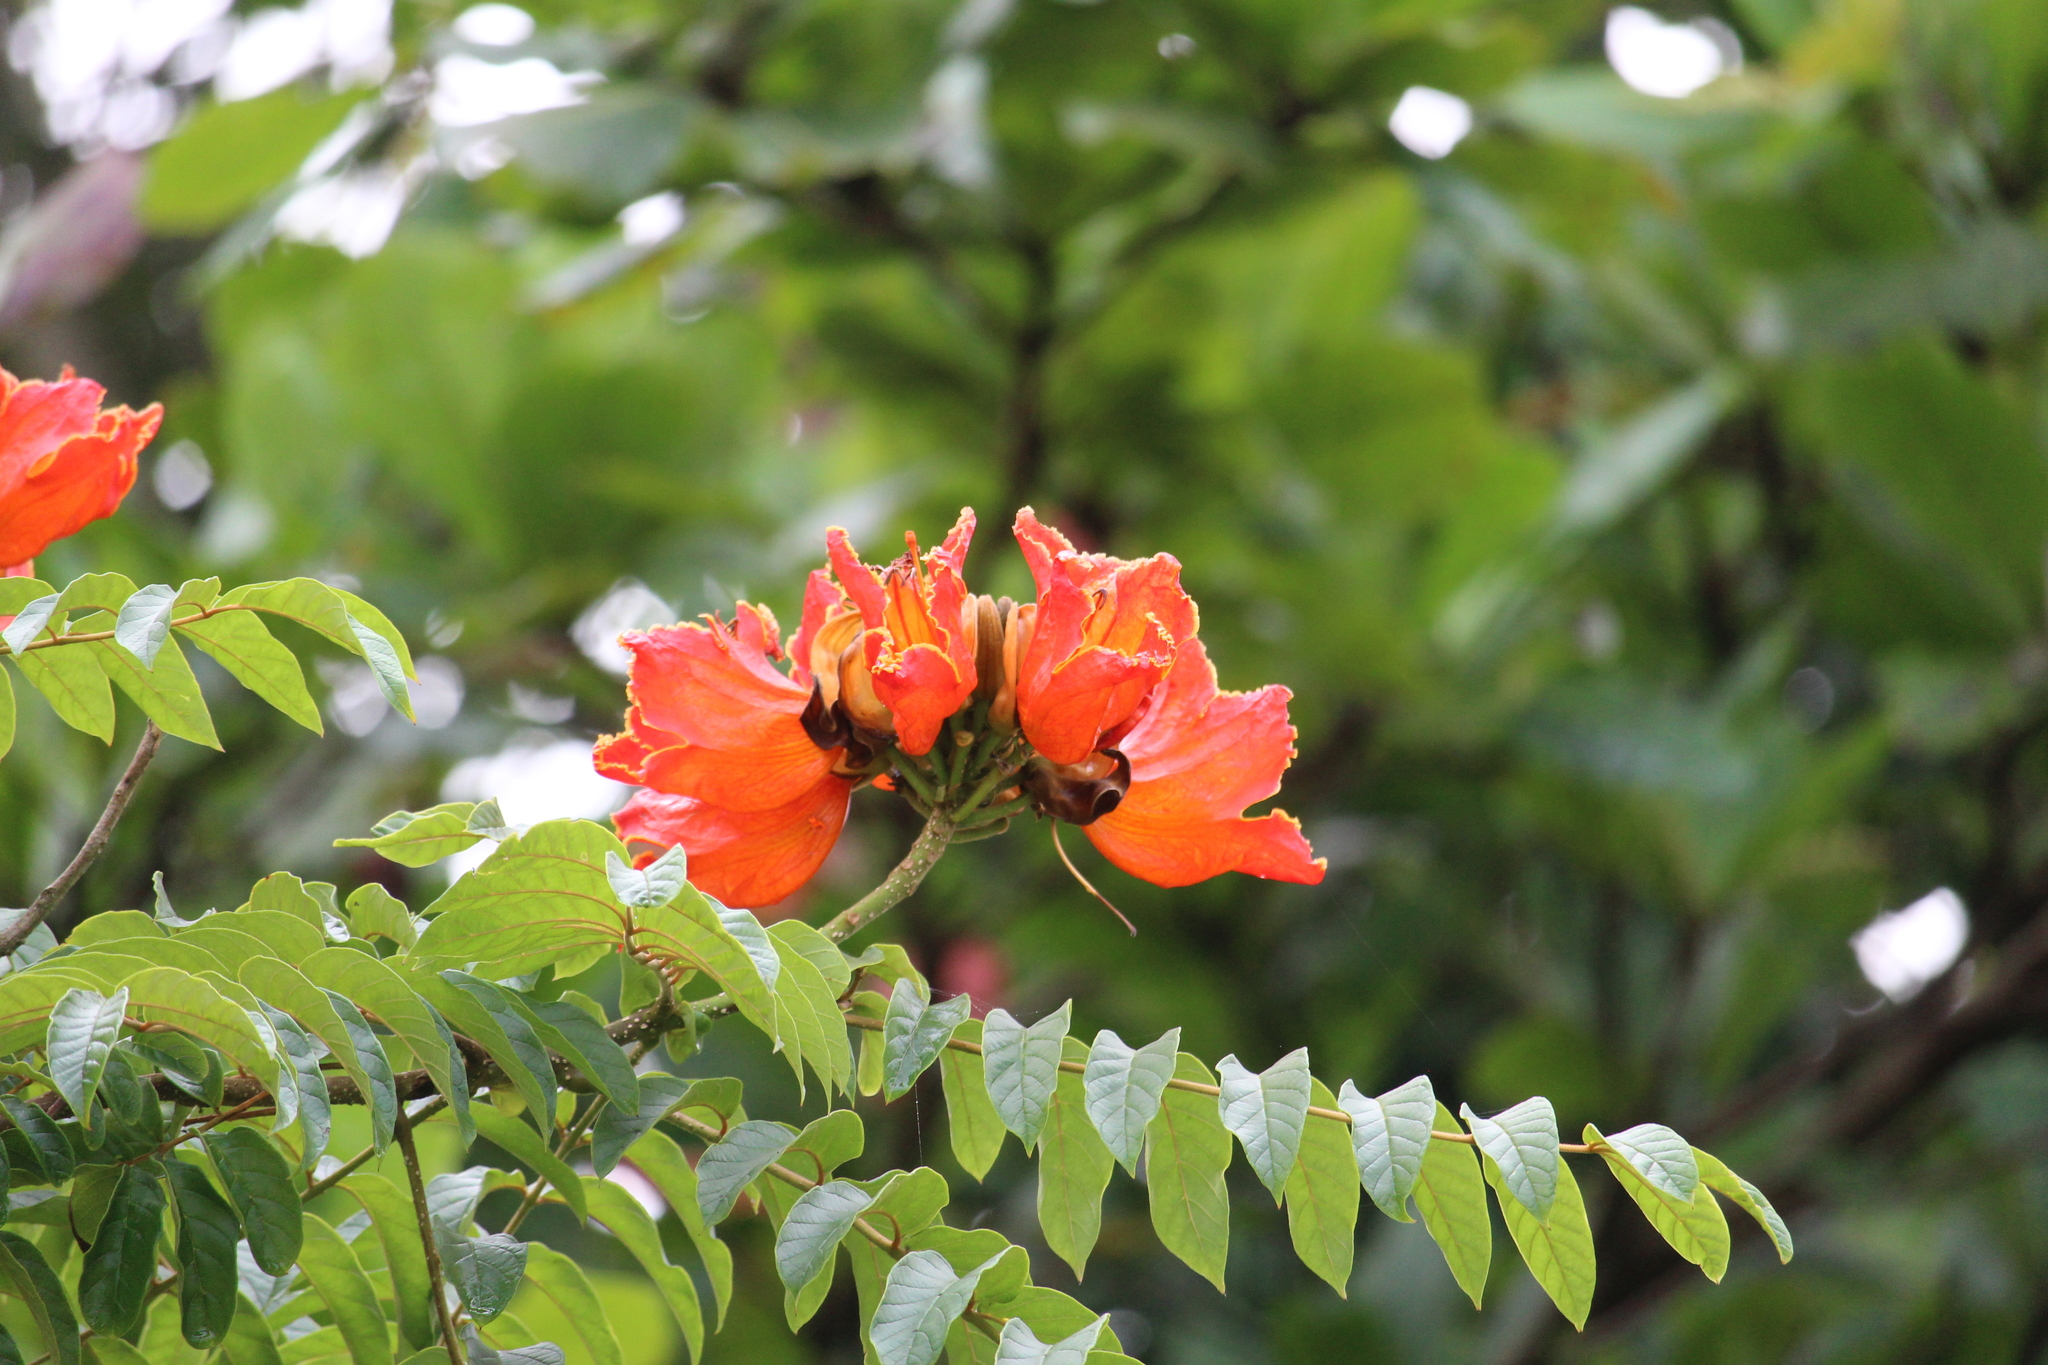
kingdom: Plantae
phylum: Tracheophyta
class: Magnoliopsida
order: Lamiales
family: Bignoniaceae
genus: Spathodea
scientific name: Spathodea campanulata
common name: African tuliptree
